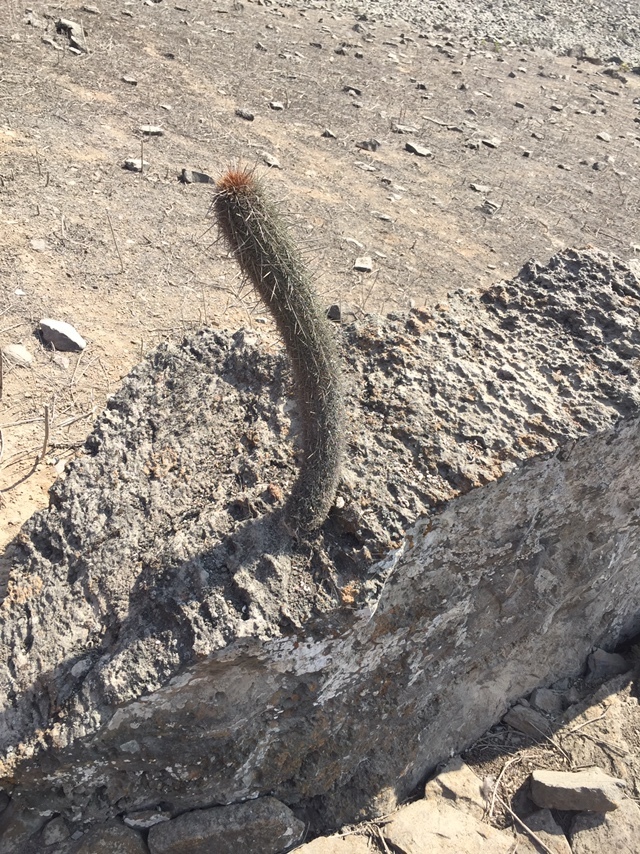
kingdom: Plantae
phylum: Tracheophyta
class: Magnoliopsida
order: Caryophyllales
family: Cactaceae
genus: Haageocereus
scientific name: Haageocereus acranthus
